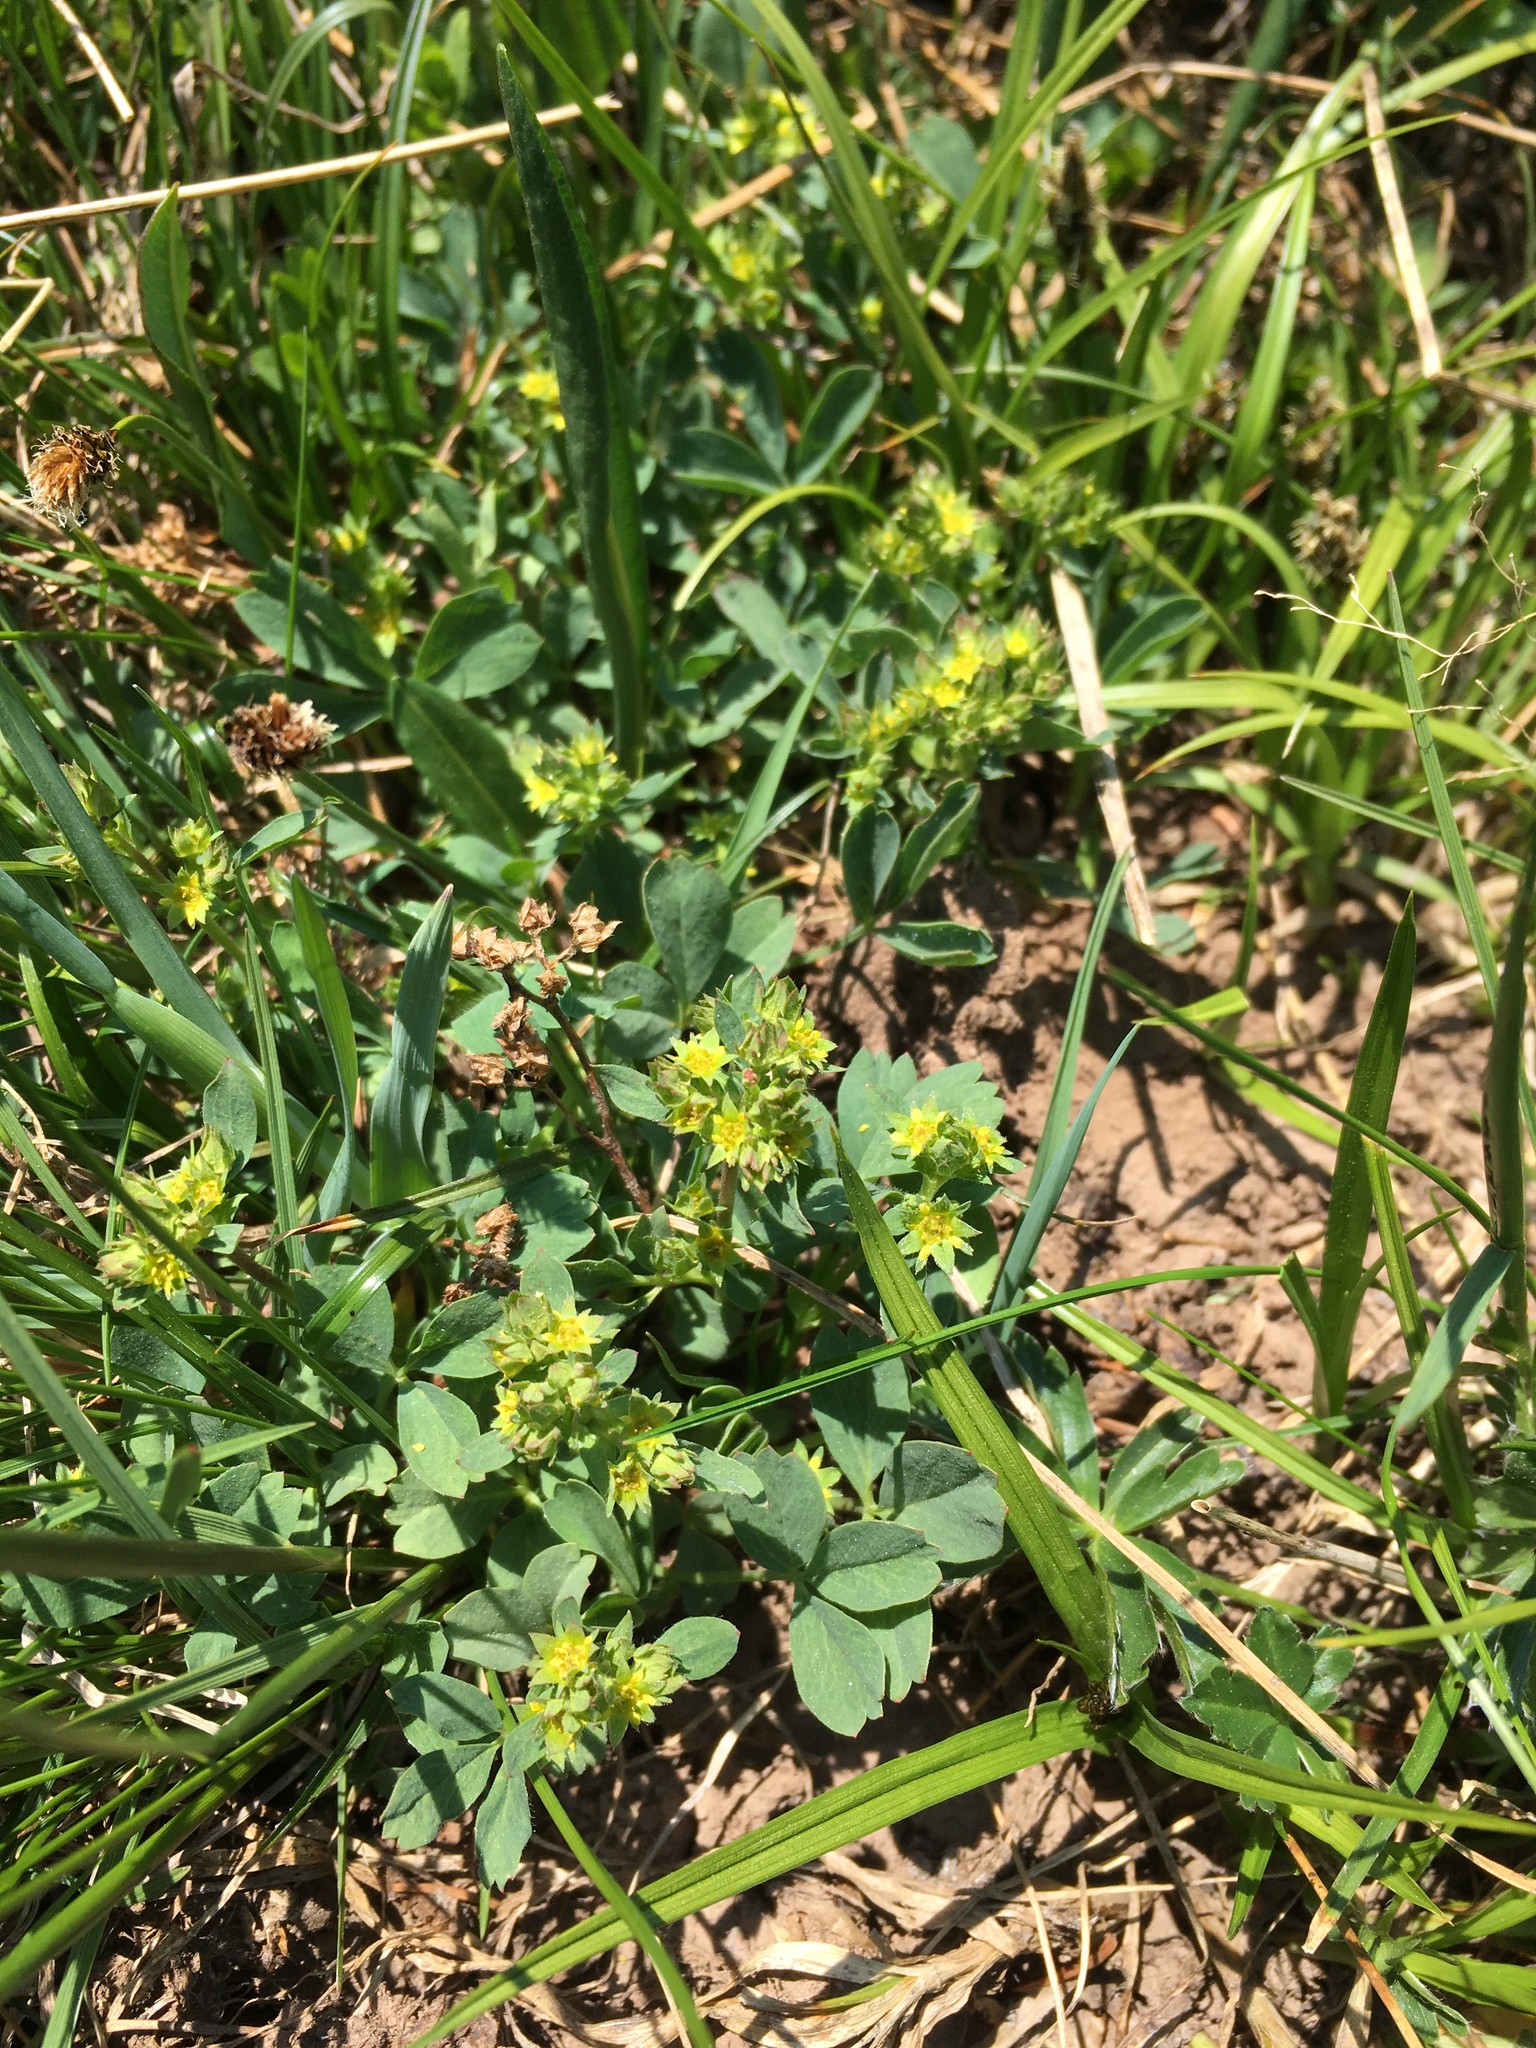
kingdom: Plantae
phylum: Tracheophyta
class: Magnoliopsida
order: Rosales
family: Rosaceae
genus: Sibbaldia
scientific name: Sibbaldia procumbens
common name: Creeping sibbaldia
